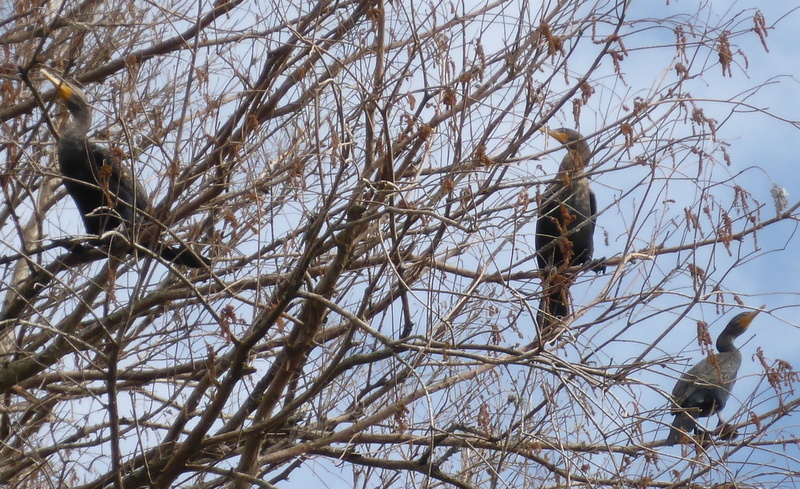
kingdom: Animalia
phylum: Chordata
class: Aves
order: Suliformes
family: Phalacrocoracidae
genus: Phalacrocorax
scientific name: Phalacrocorax auritus
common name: Double-crested cormorant
